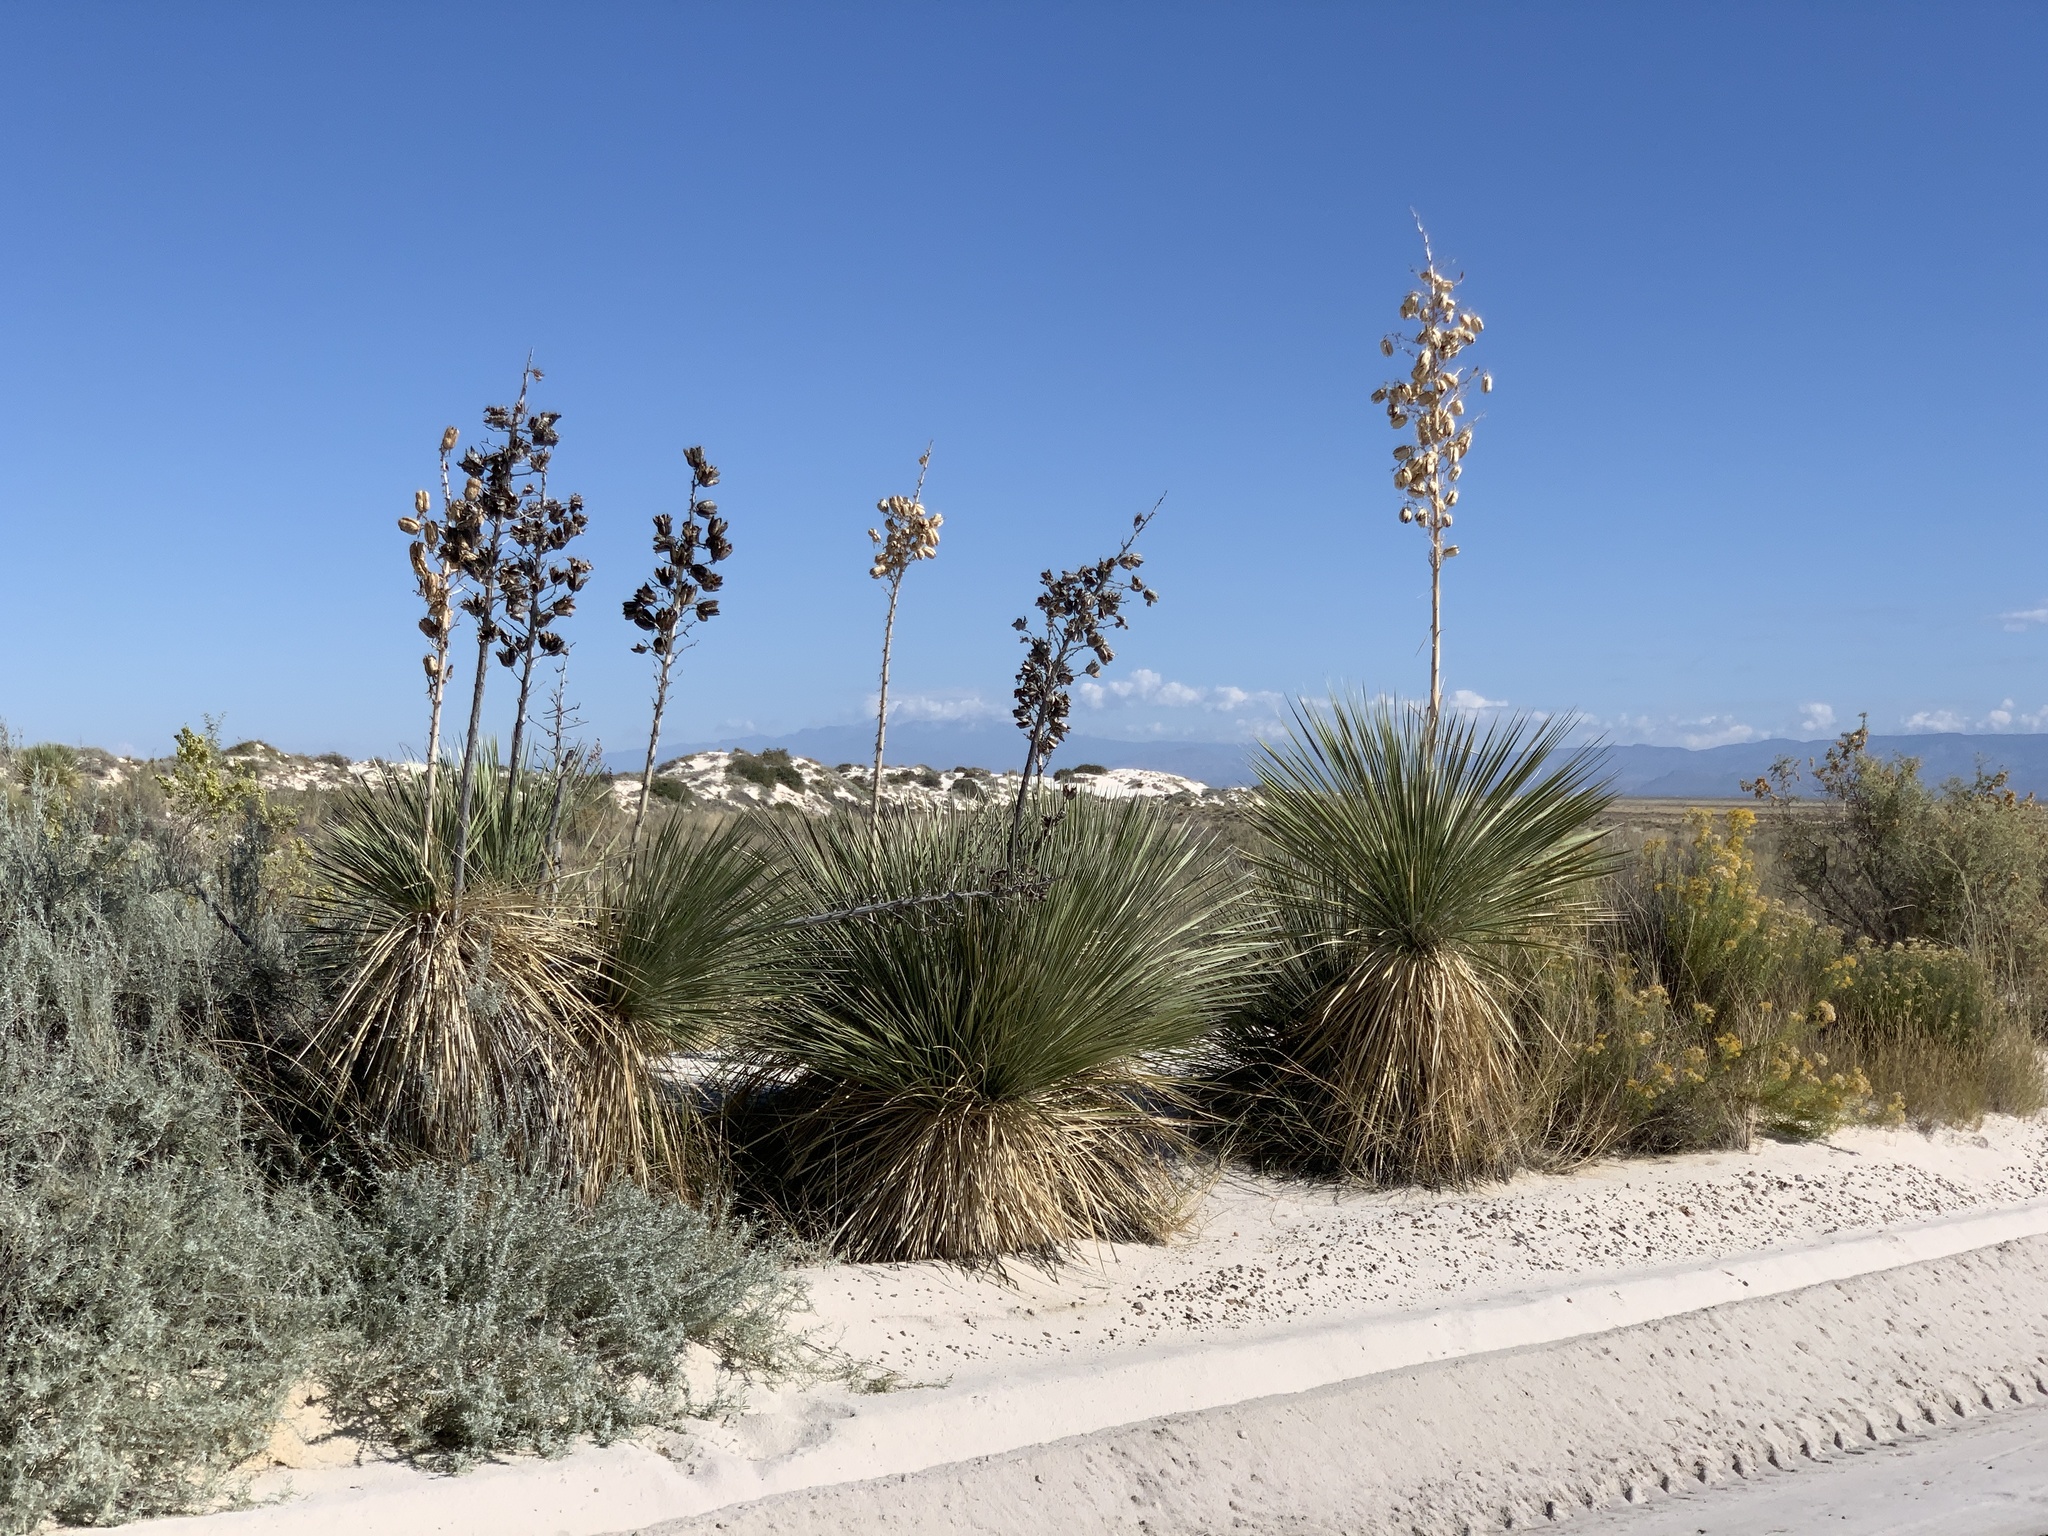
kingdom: Plantae
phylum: Tracheophyta
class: Liliopsida
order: Asparagales
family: Asparagaceae
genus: Yucca
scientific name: Yucca elata
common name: Palmella
